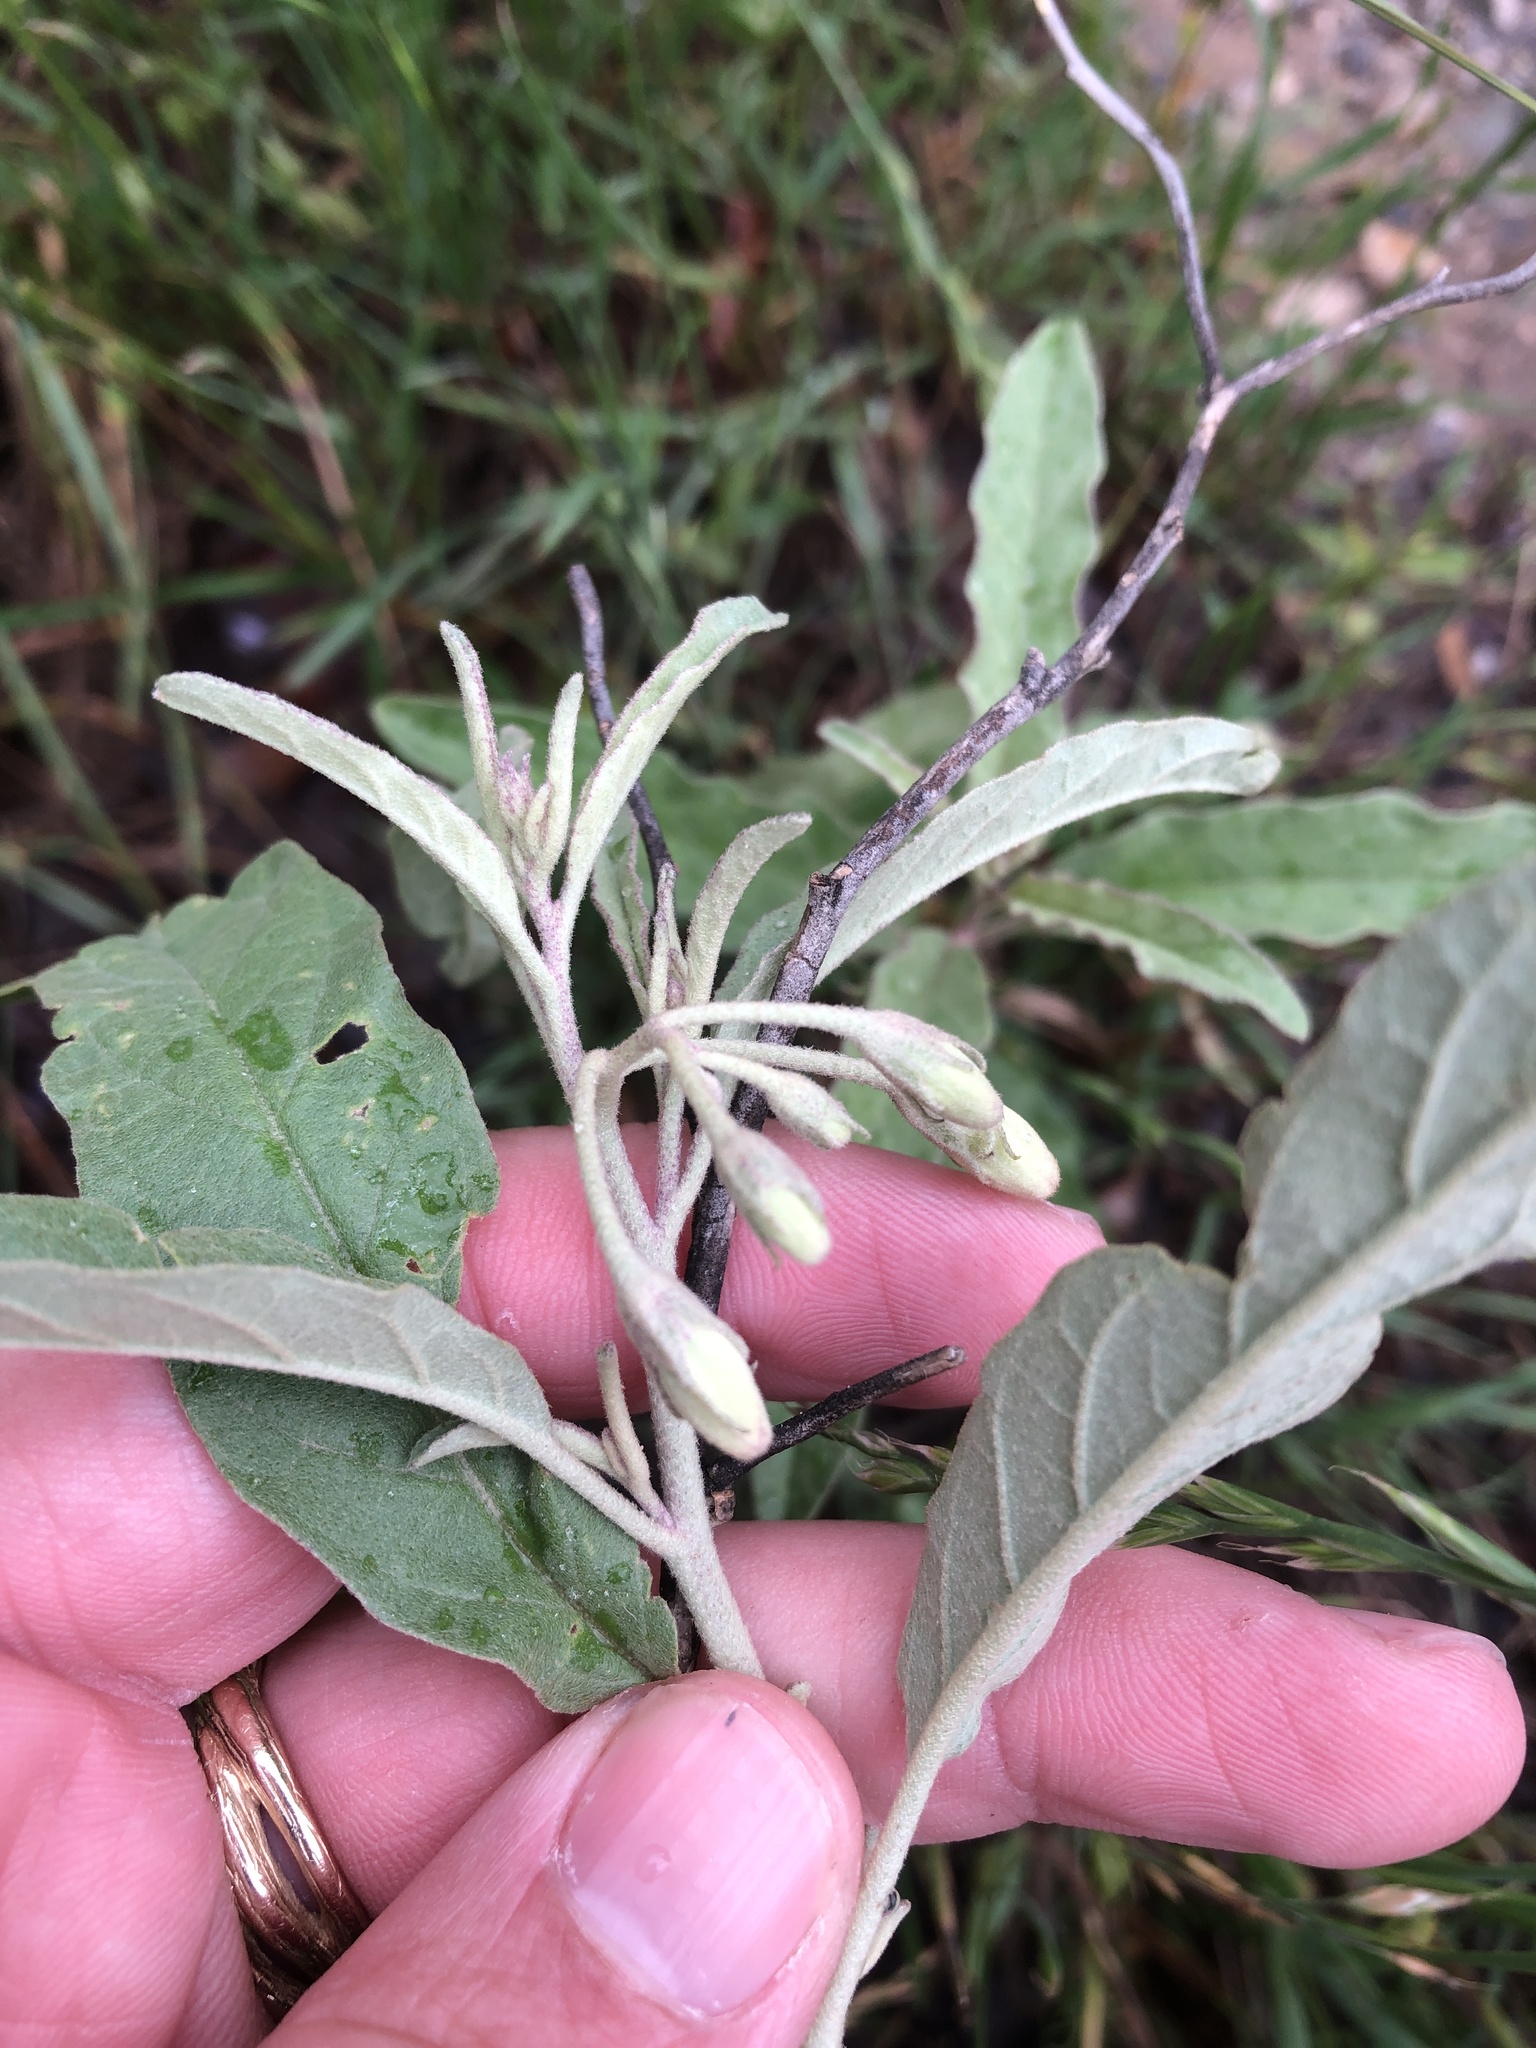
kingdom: Plantae
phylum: Tracheophyta
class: Magnoliopsida
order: Solanales
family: Solanaceae
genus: Solanum
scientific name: Solanum elaeagnifolium
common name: Silverleaf nightshade
